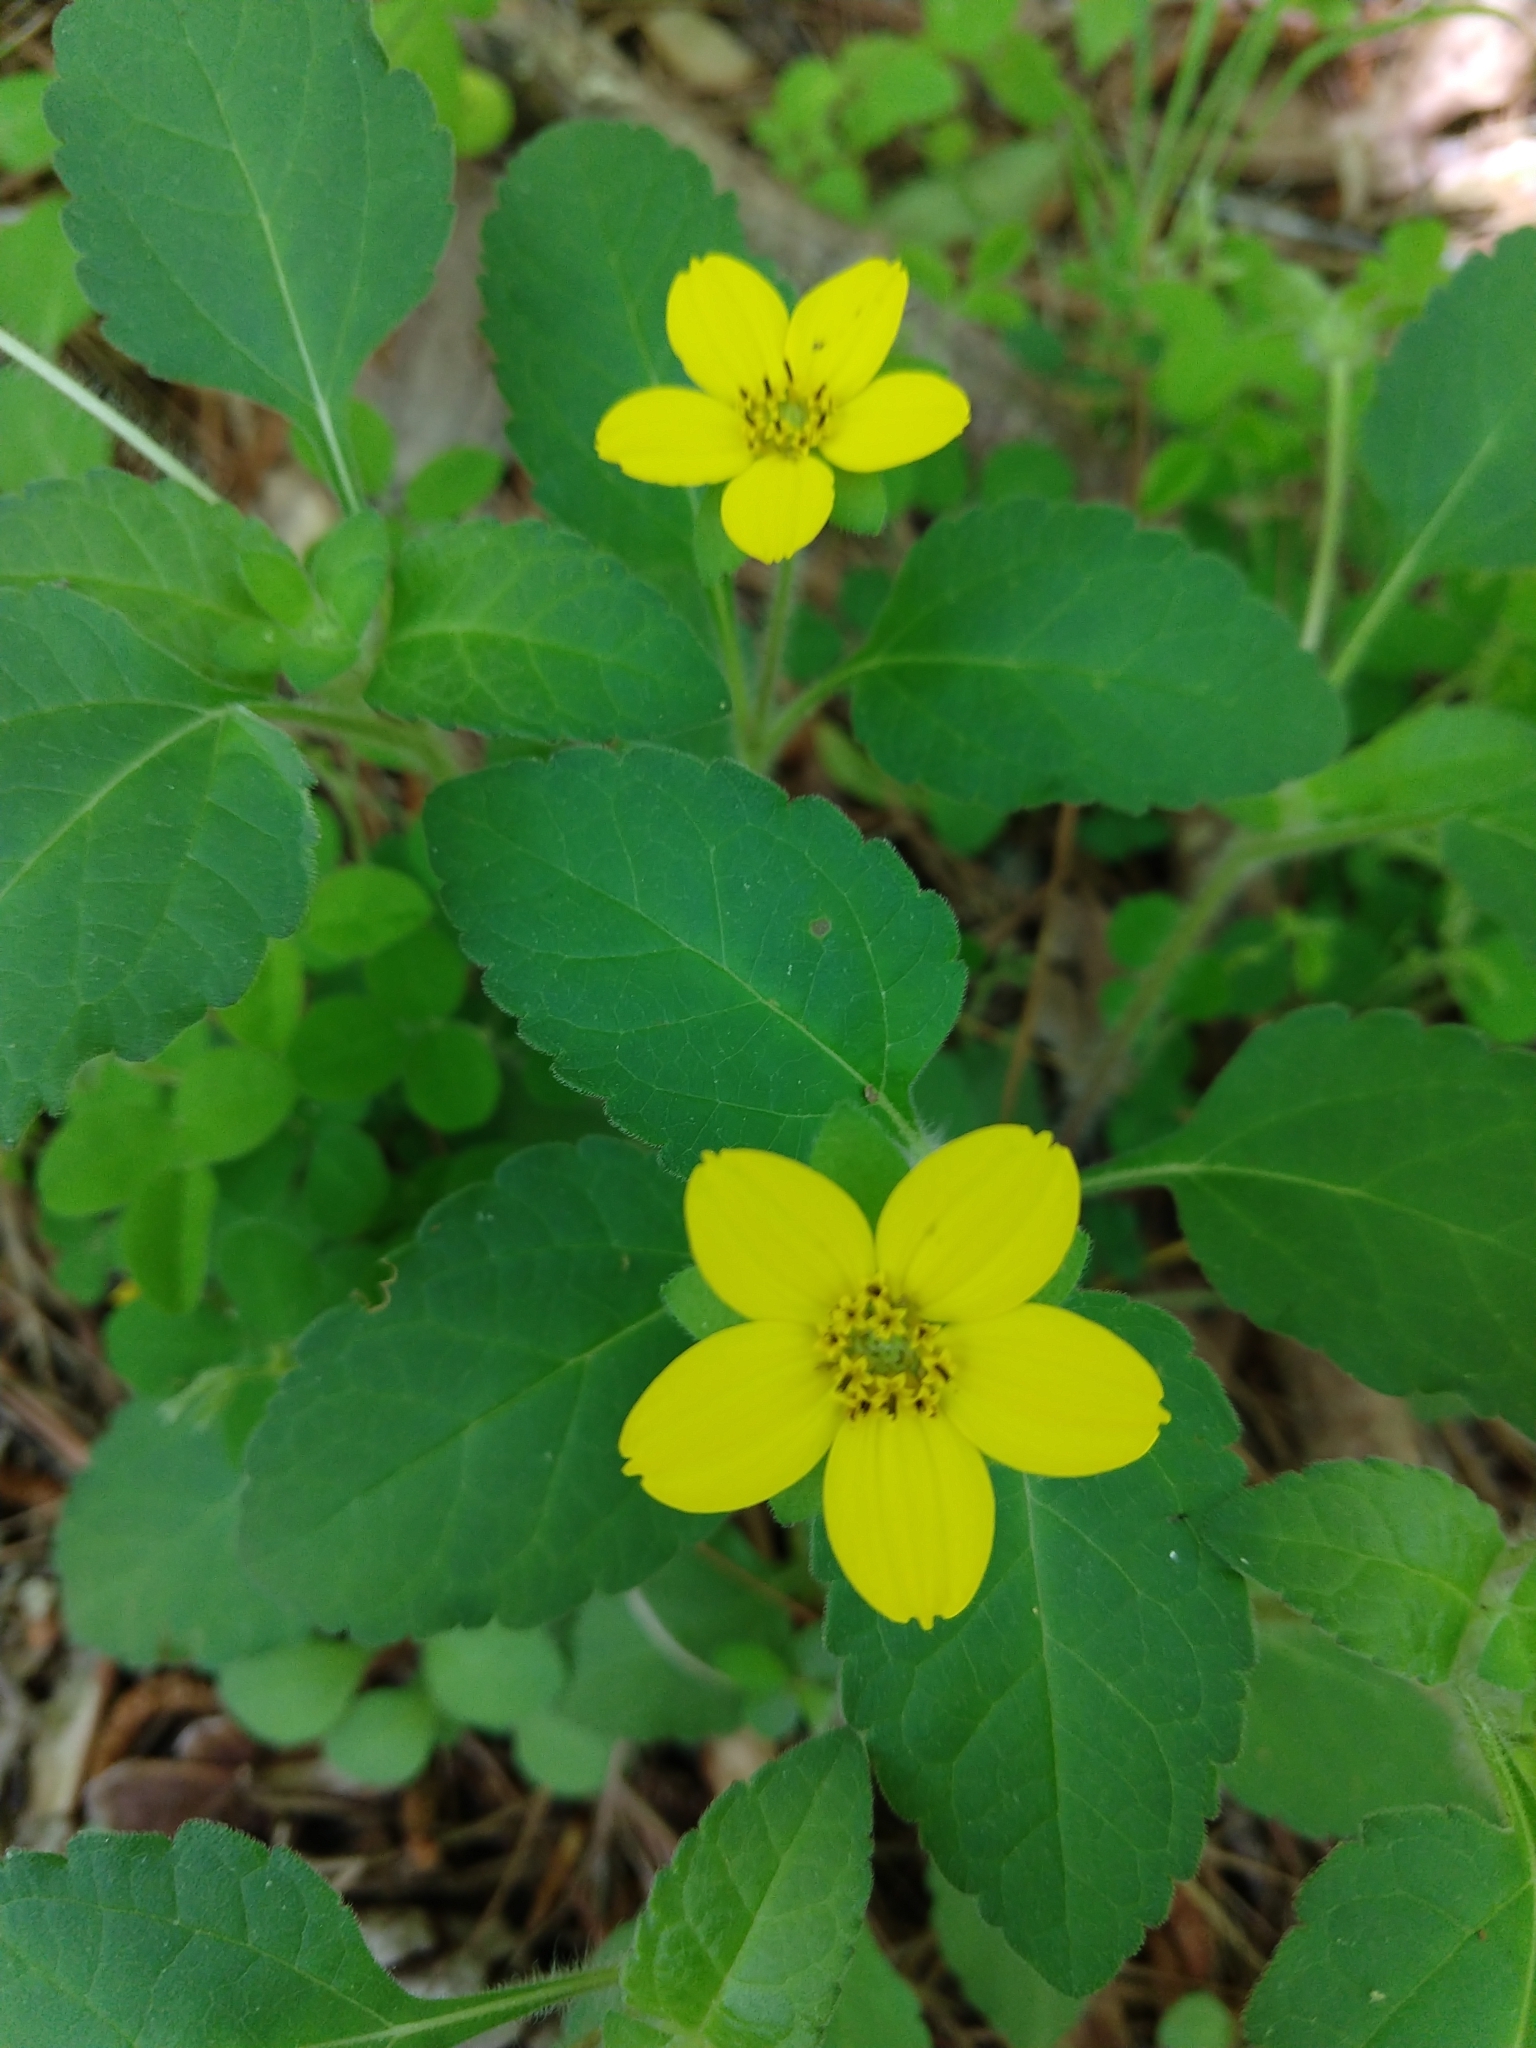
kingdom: Plantae
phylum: Tracheophyta
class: Magnoliopsida
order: Asterales
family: Asteraceae
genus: Chrysogonum
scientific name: Chrysogonum virginianum
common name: Golden-knee
